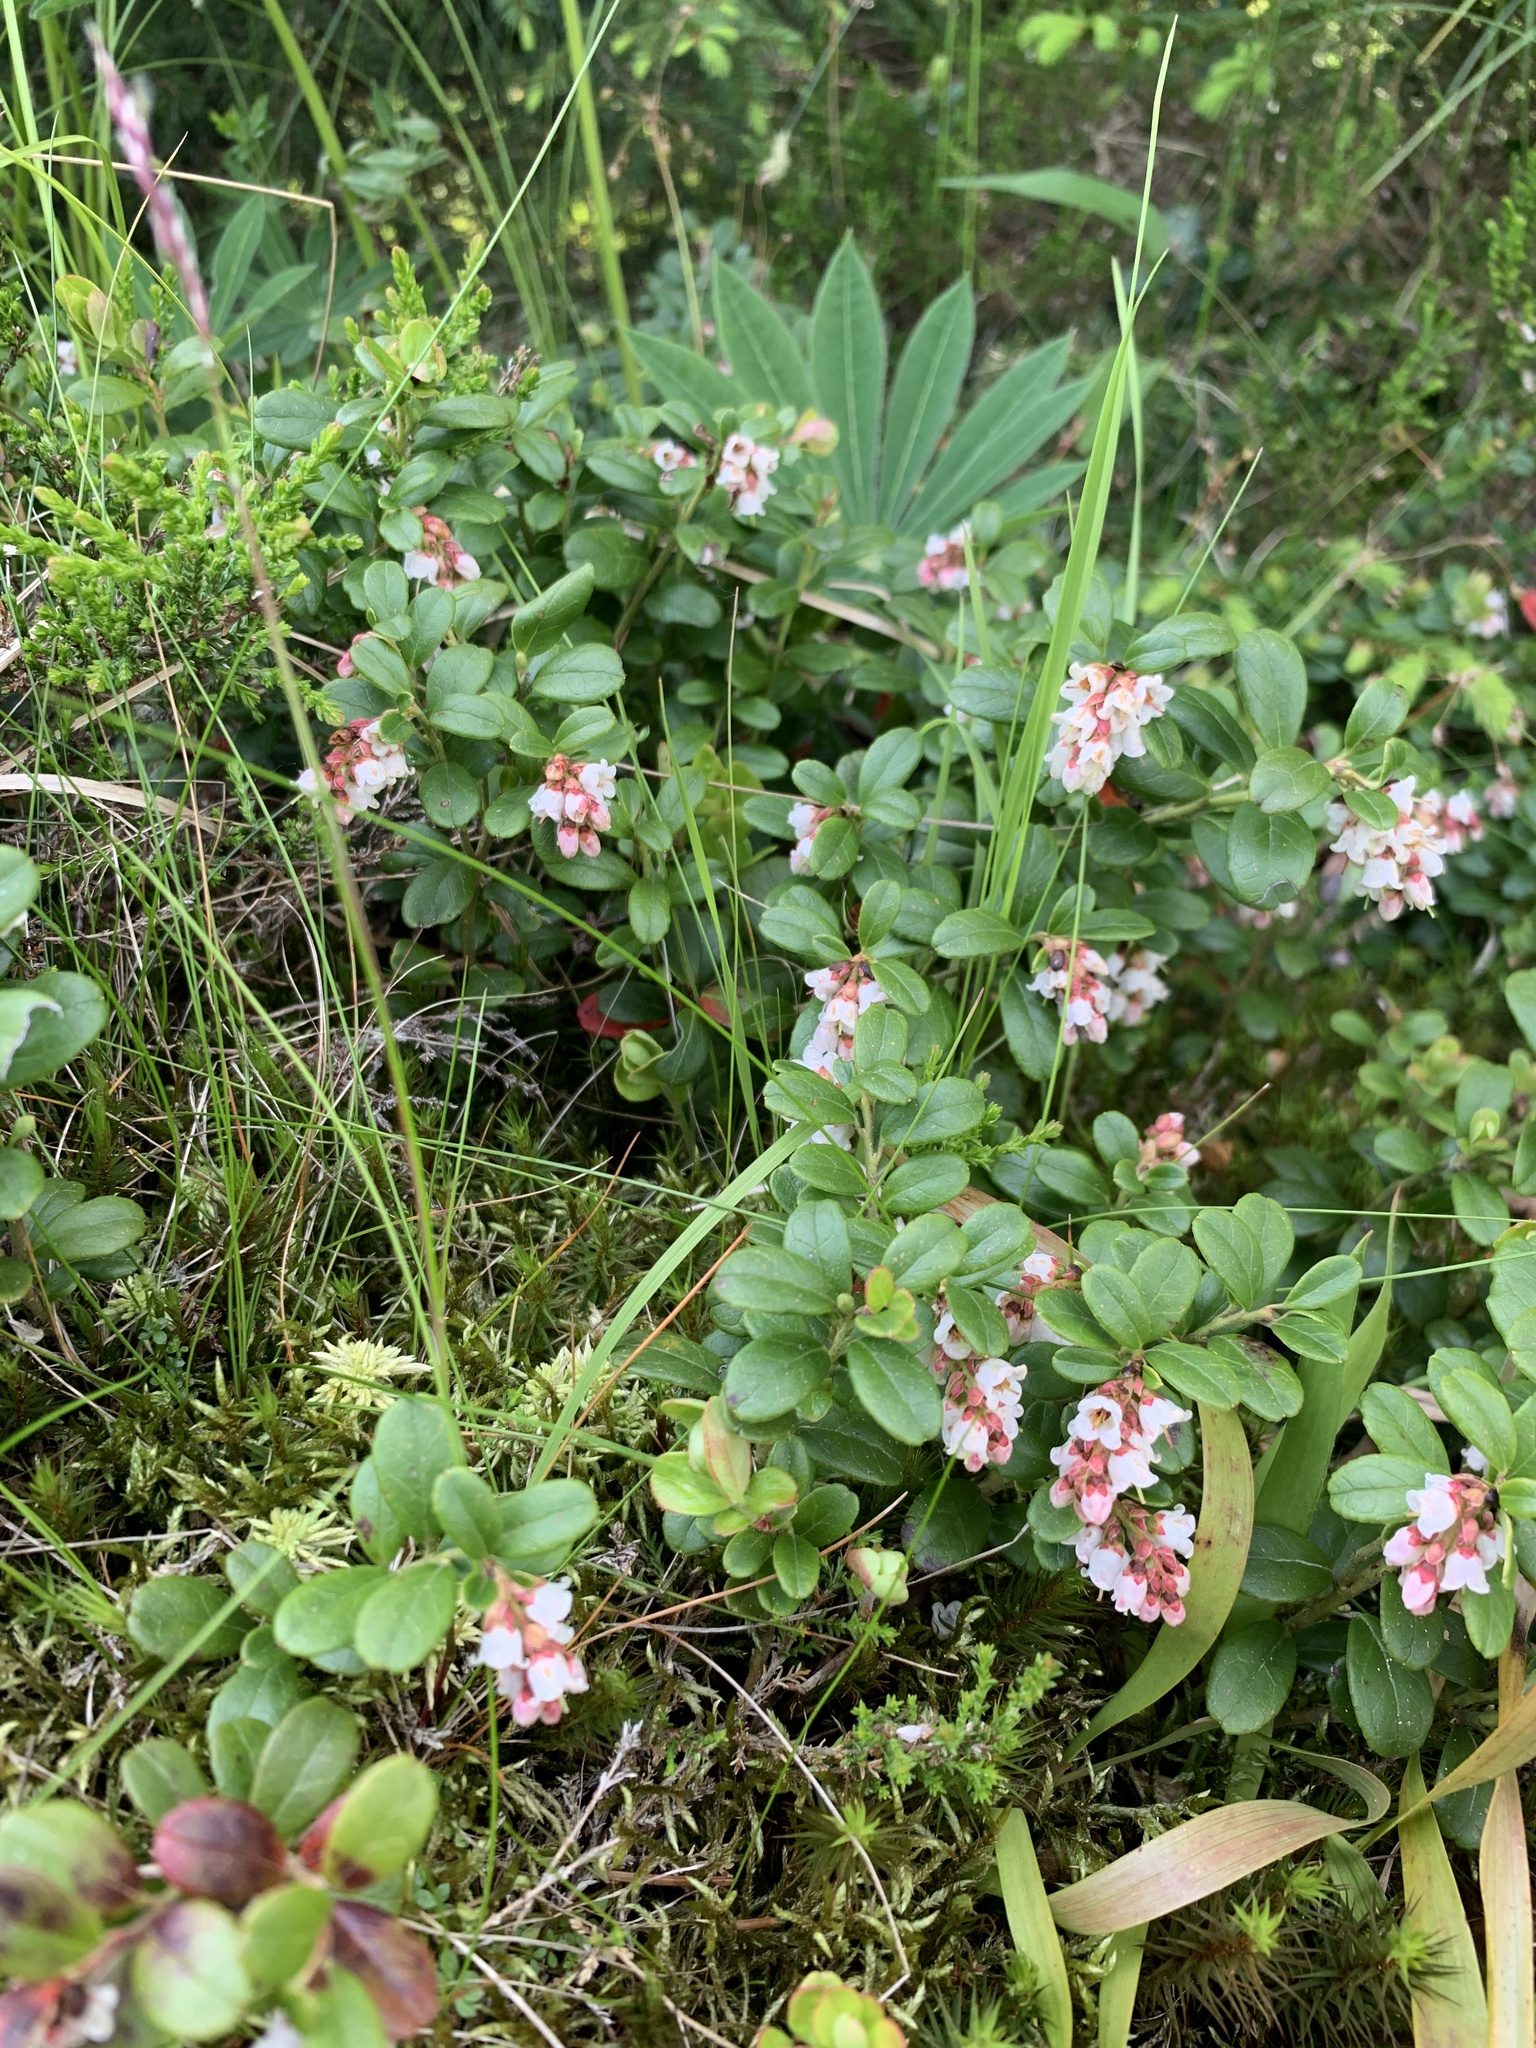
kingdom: Plantae
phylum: Tracheophyta
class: Magnoliopsida
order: Ericales
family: Ericaceae
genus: Vaccinium
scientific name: Vaccinium vitis-idaea
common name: Cowberry
